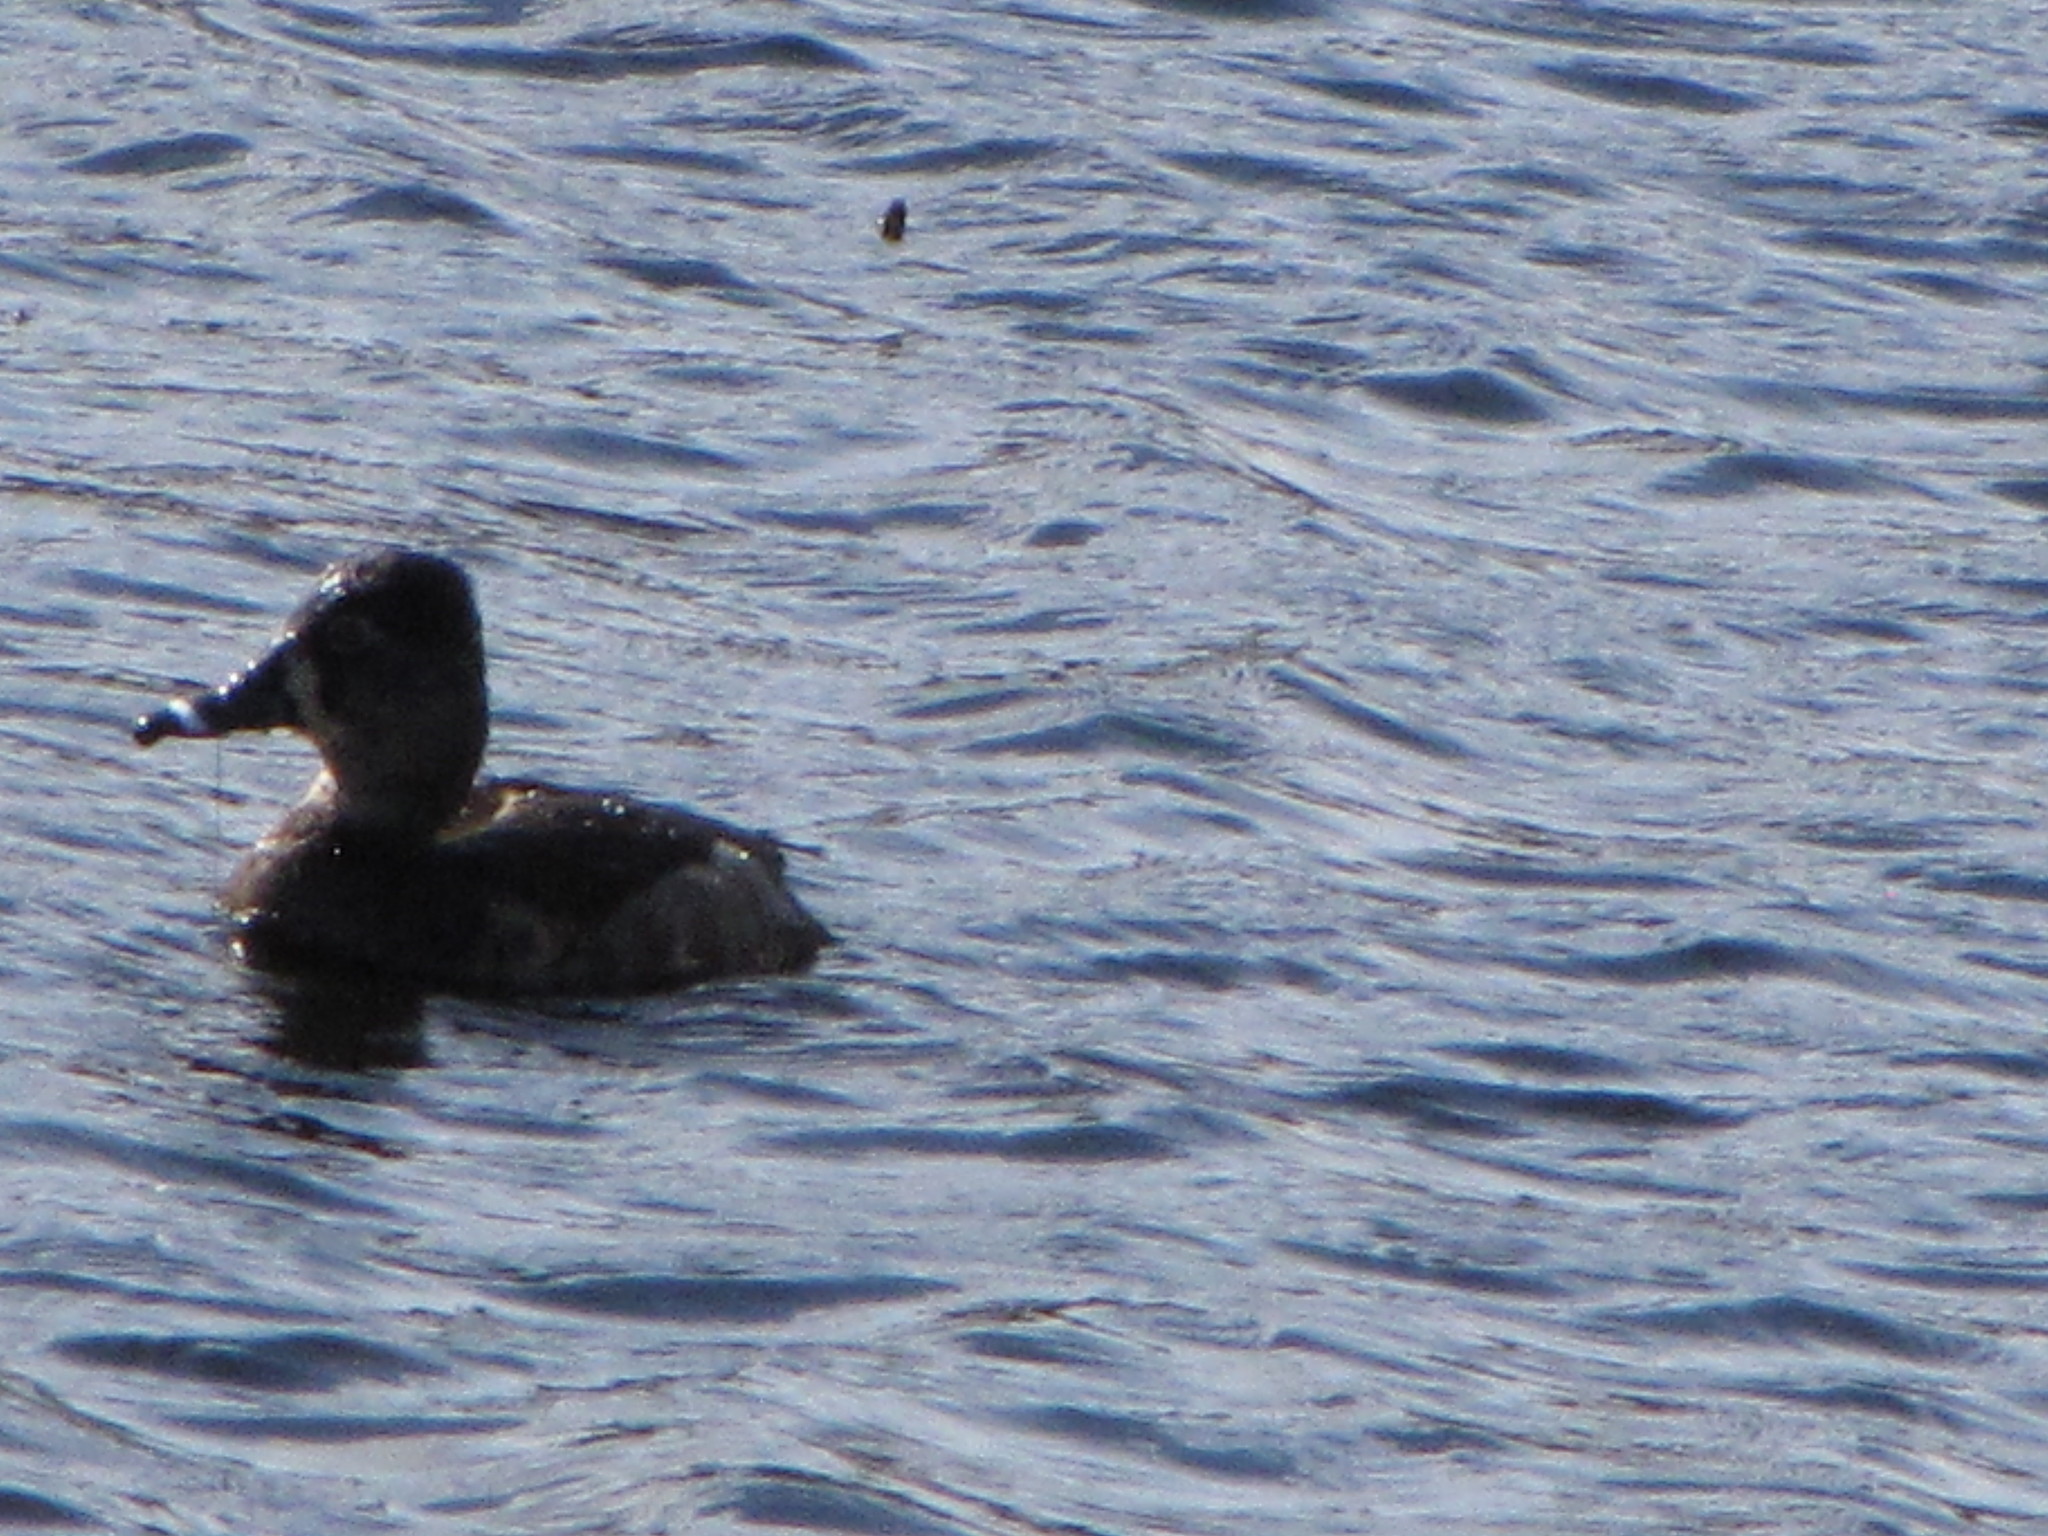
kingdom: Animalia
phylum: Chordata
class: Aves
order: Anseriformes
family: Anatidae
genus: Aythya
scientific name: Aythya collaris
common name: Ring-necked duck
